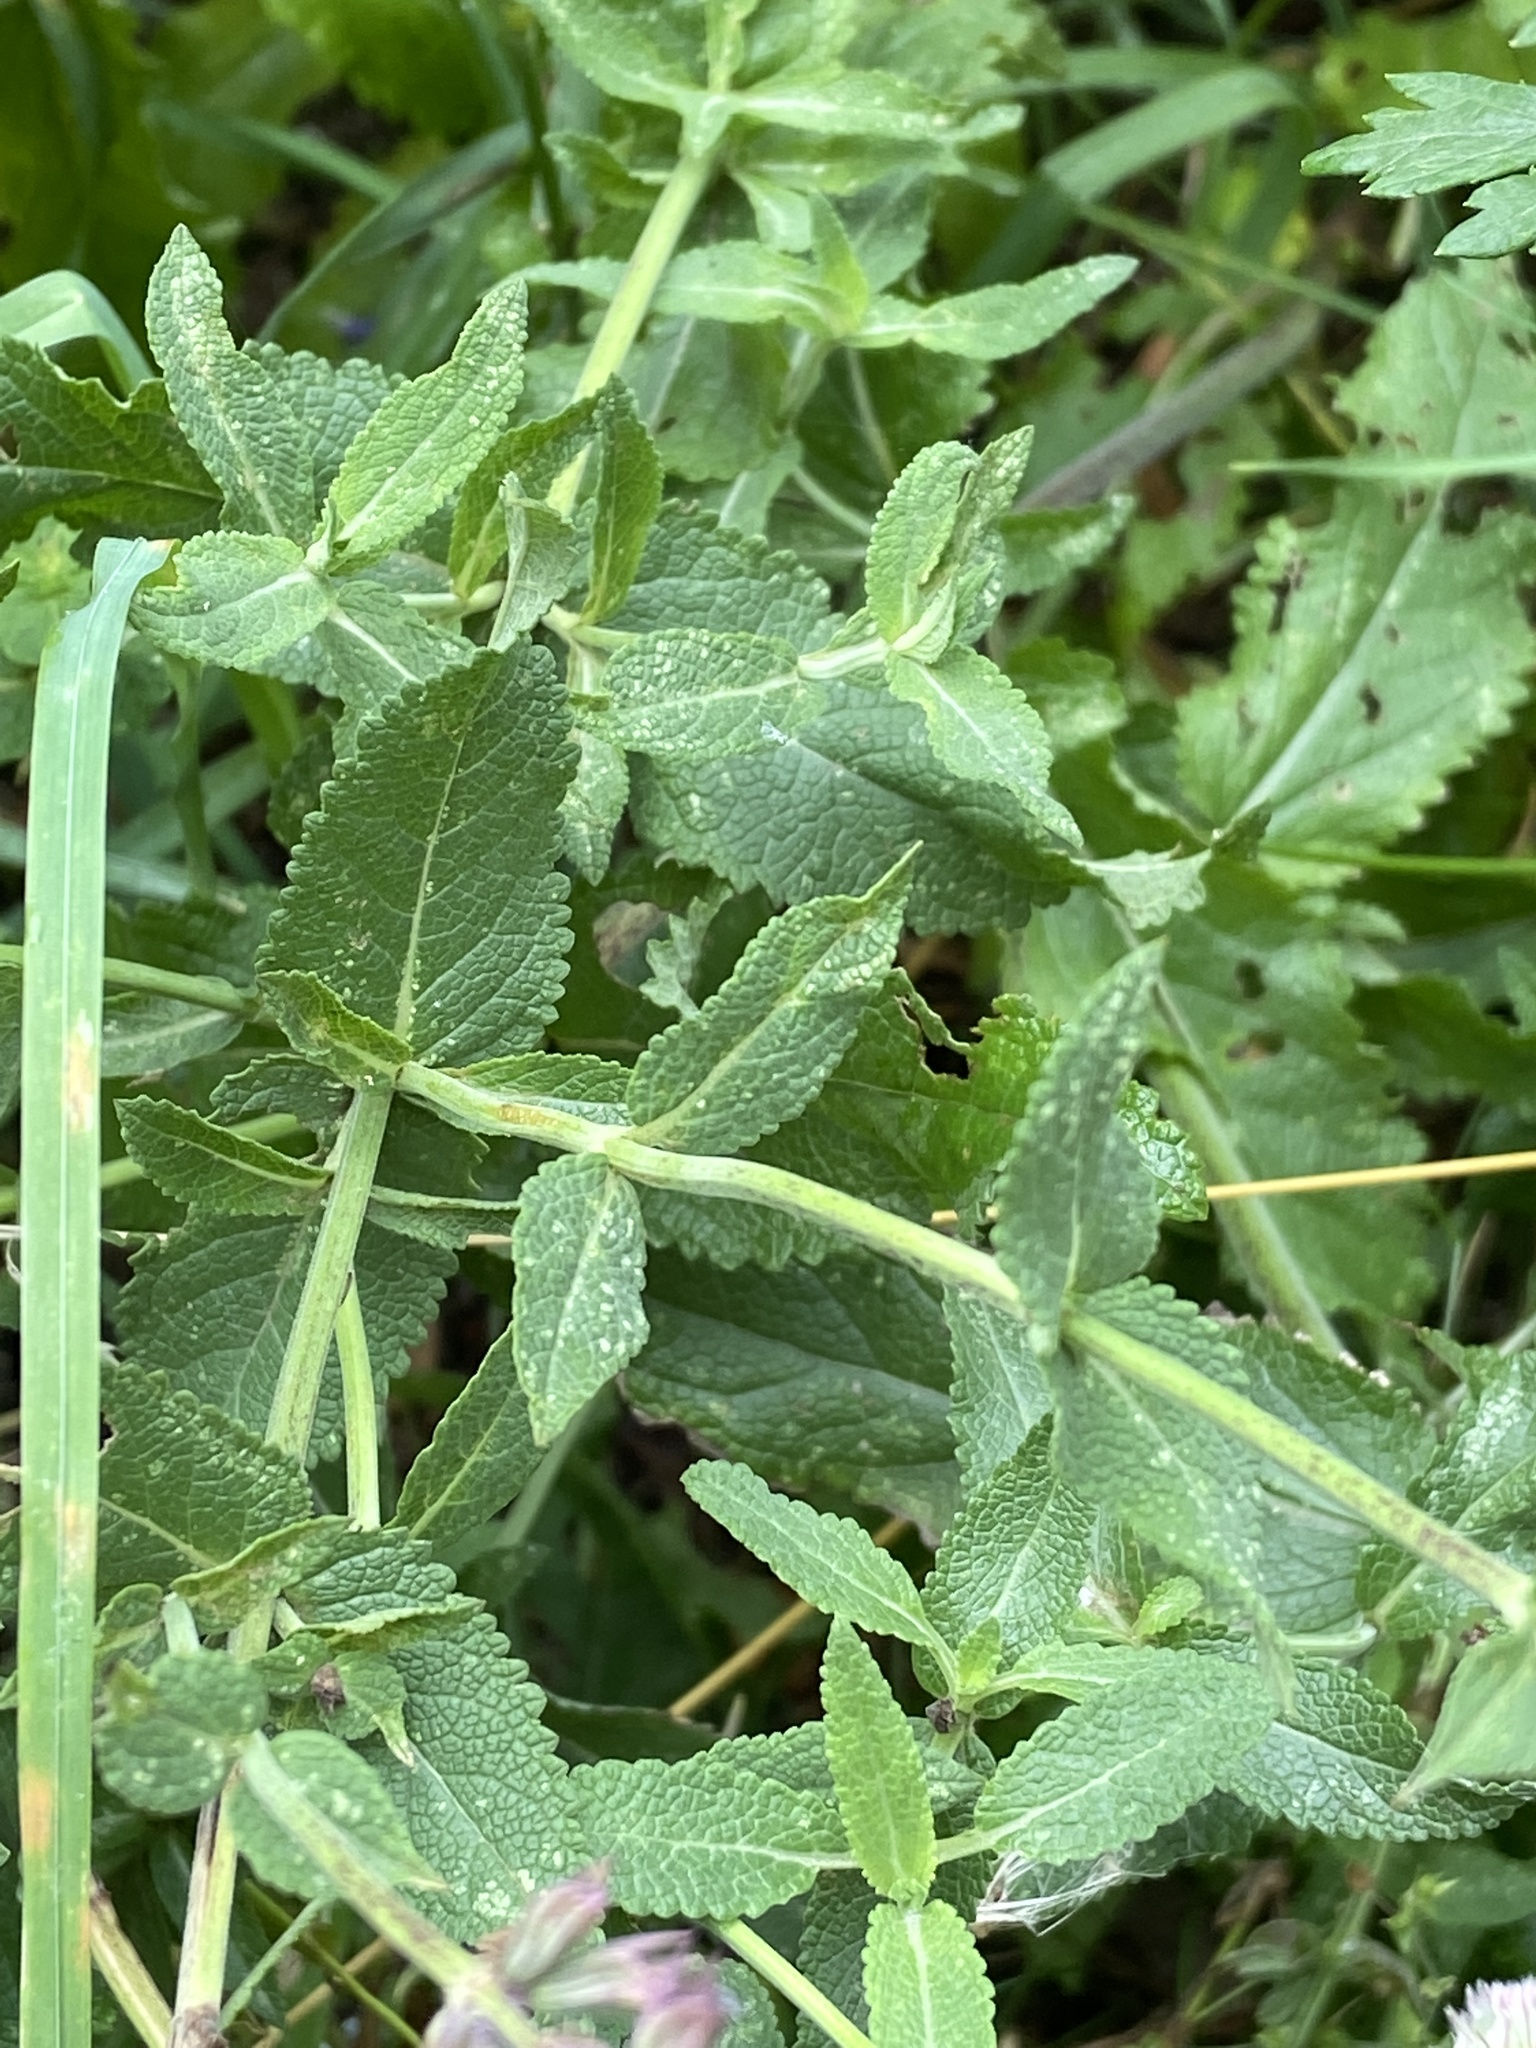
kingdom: Plantae
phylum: Tracheophyta
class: Magnoliopsida
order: Lamiales
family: Lamiaceae
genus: Salvia
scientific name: Salvia nemorosa
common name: Balkan clary
